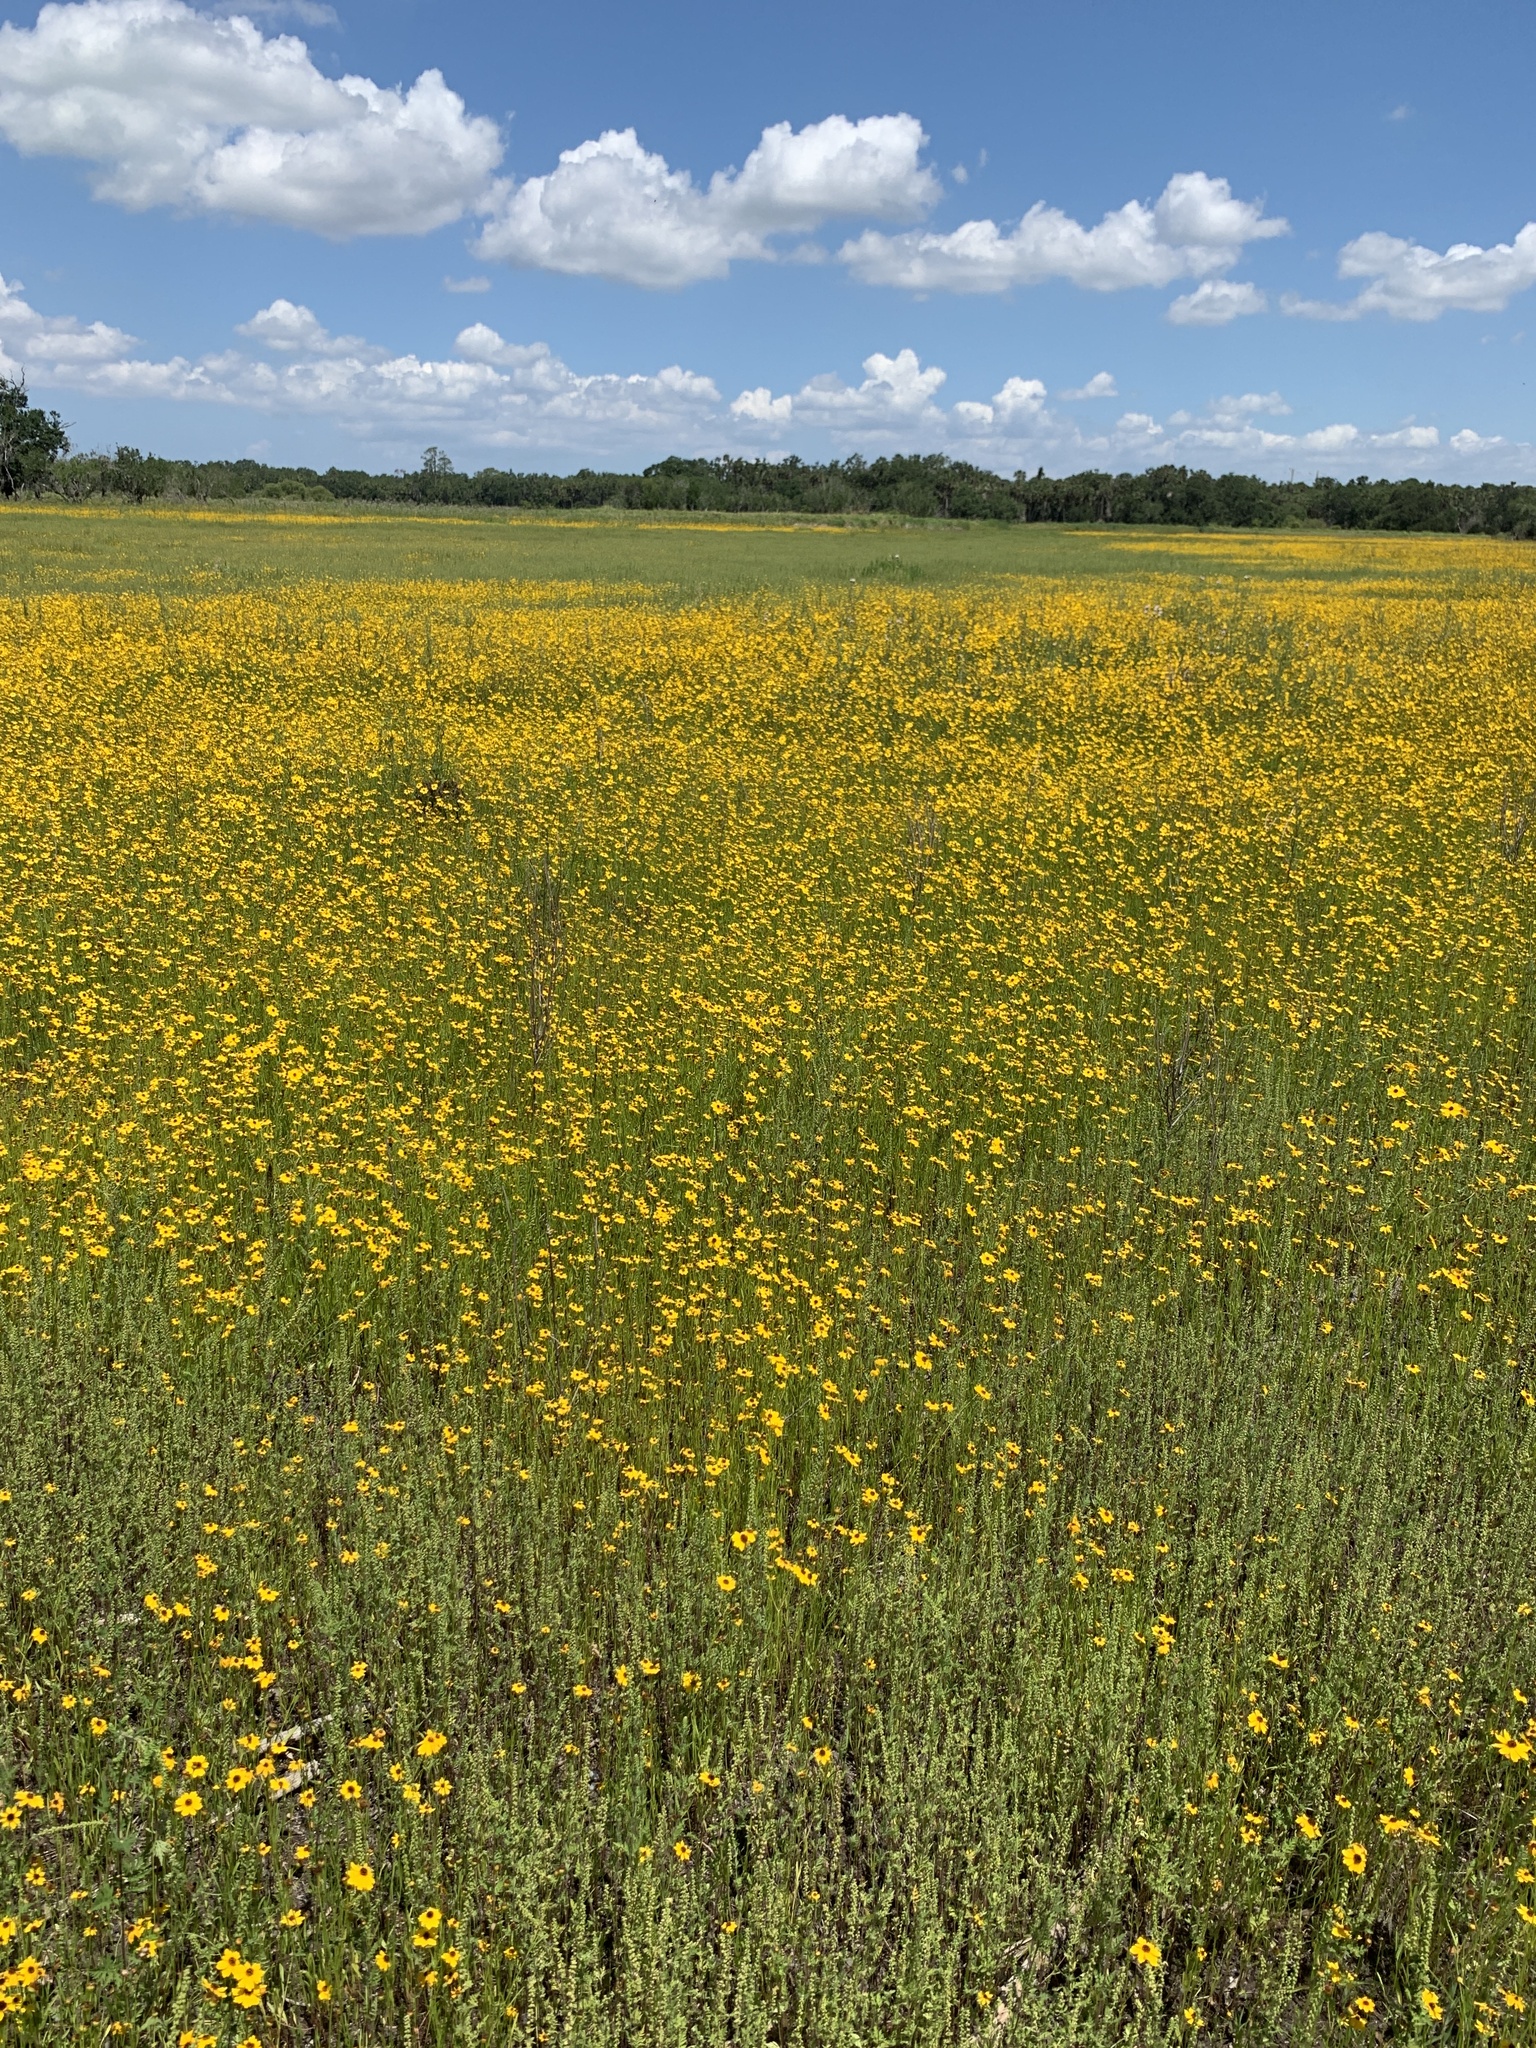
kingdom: Plantae
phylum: Tracheophyta
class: Magnoliopsida
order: Asterales
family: Asteraceae
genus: Coreopsis
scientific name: Coreopsis leavenworthii
